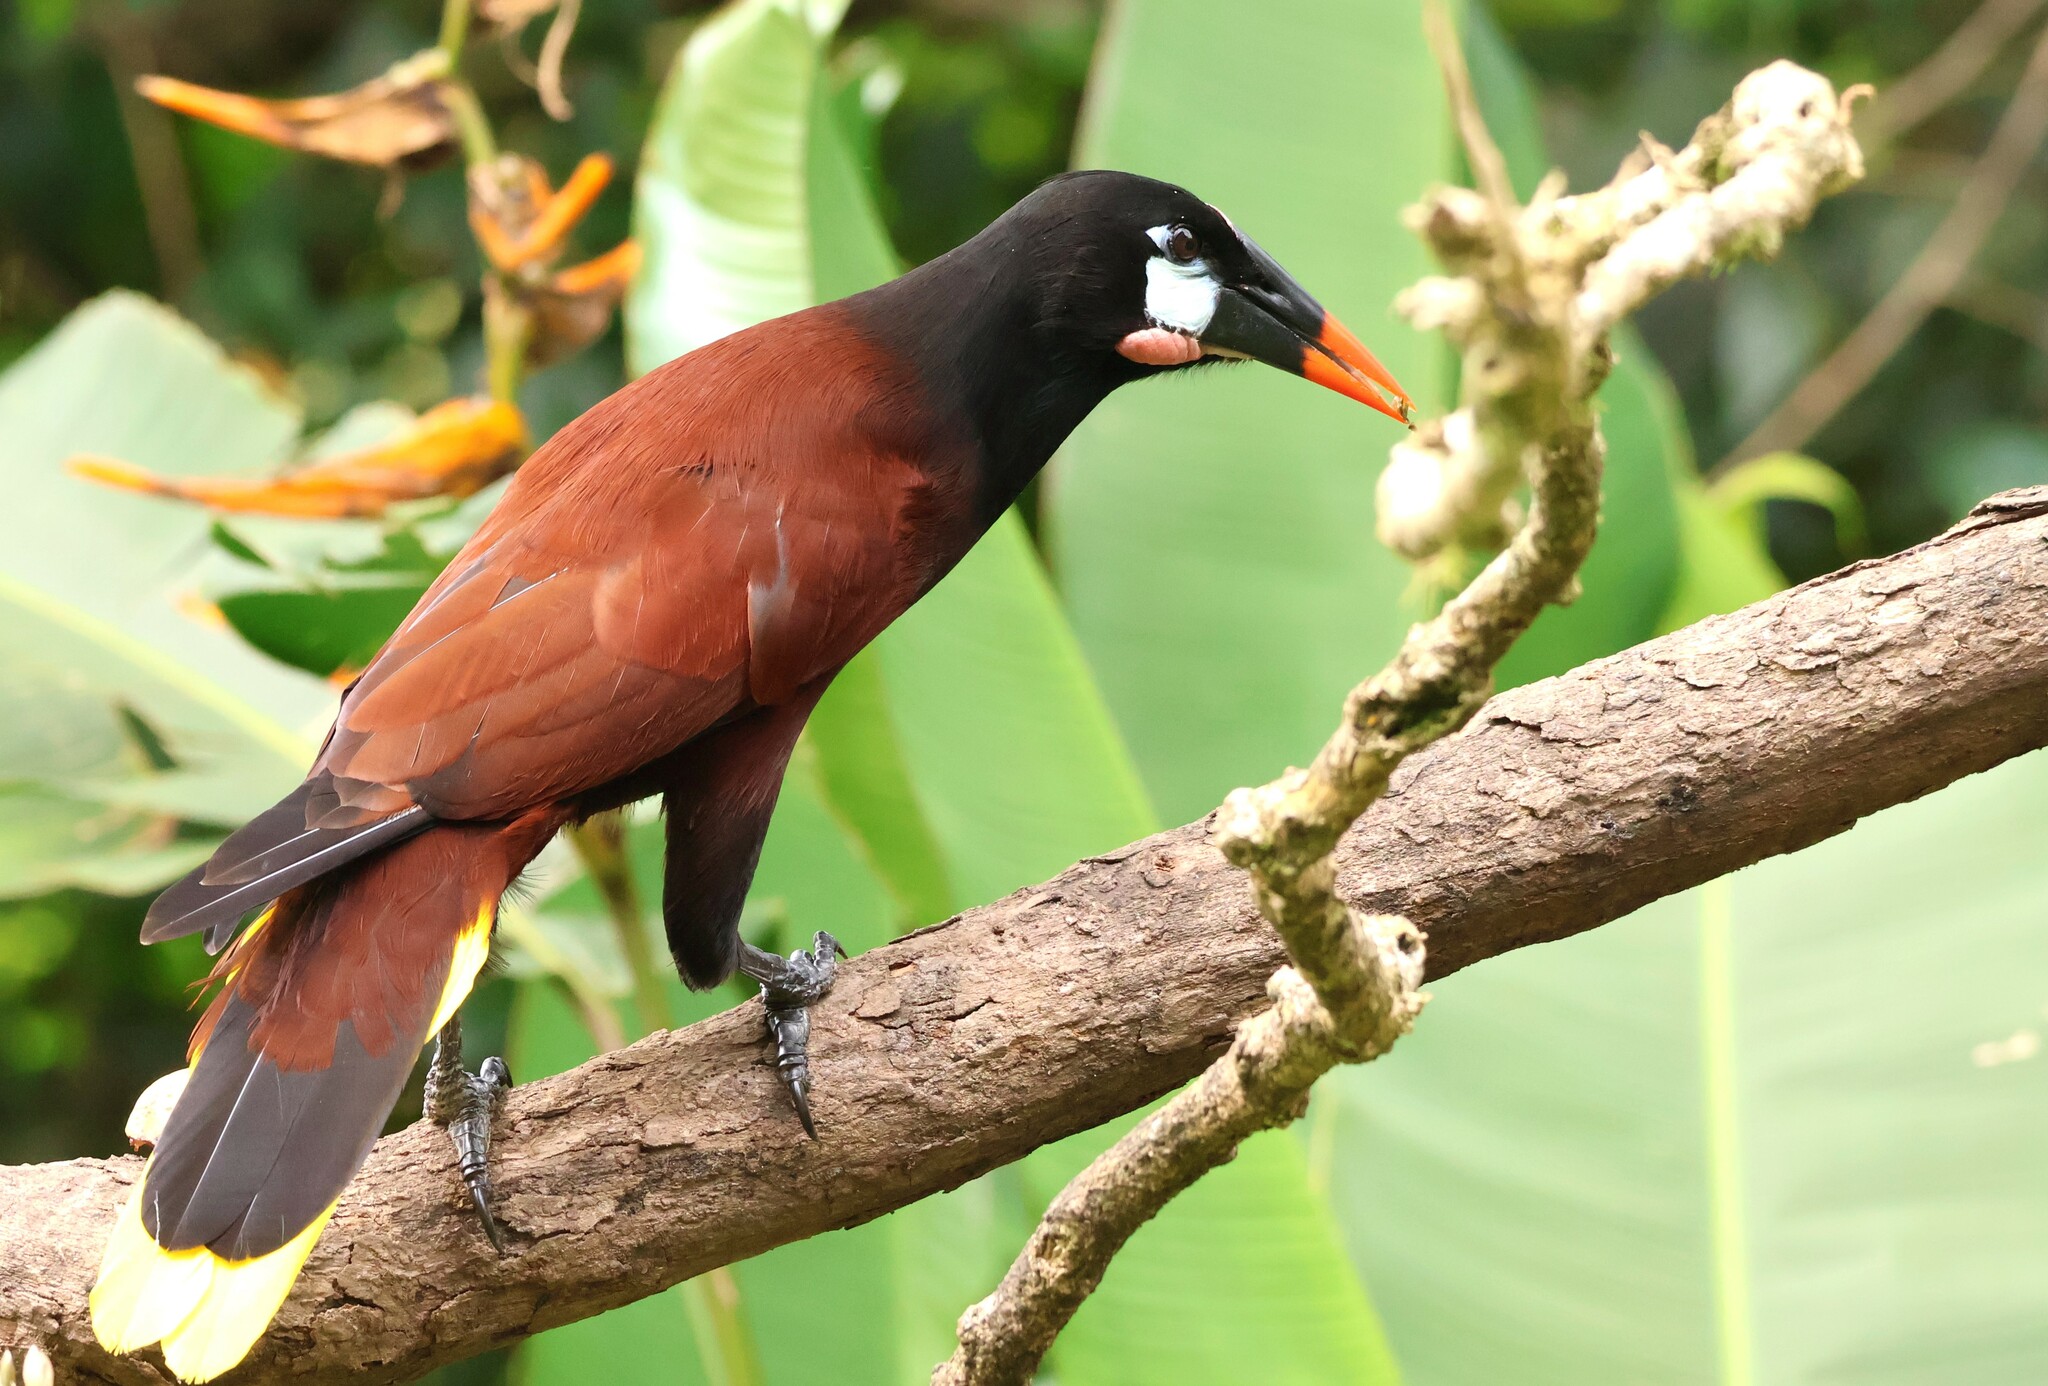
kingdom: Animalia
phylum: Chordata
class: Aves
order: Passeriformes
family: Icteridae
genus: Psarocolius
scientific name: Psarocolius montezuma
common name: Montezuma oropendola
